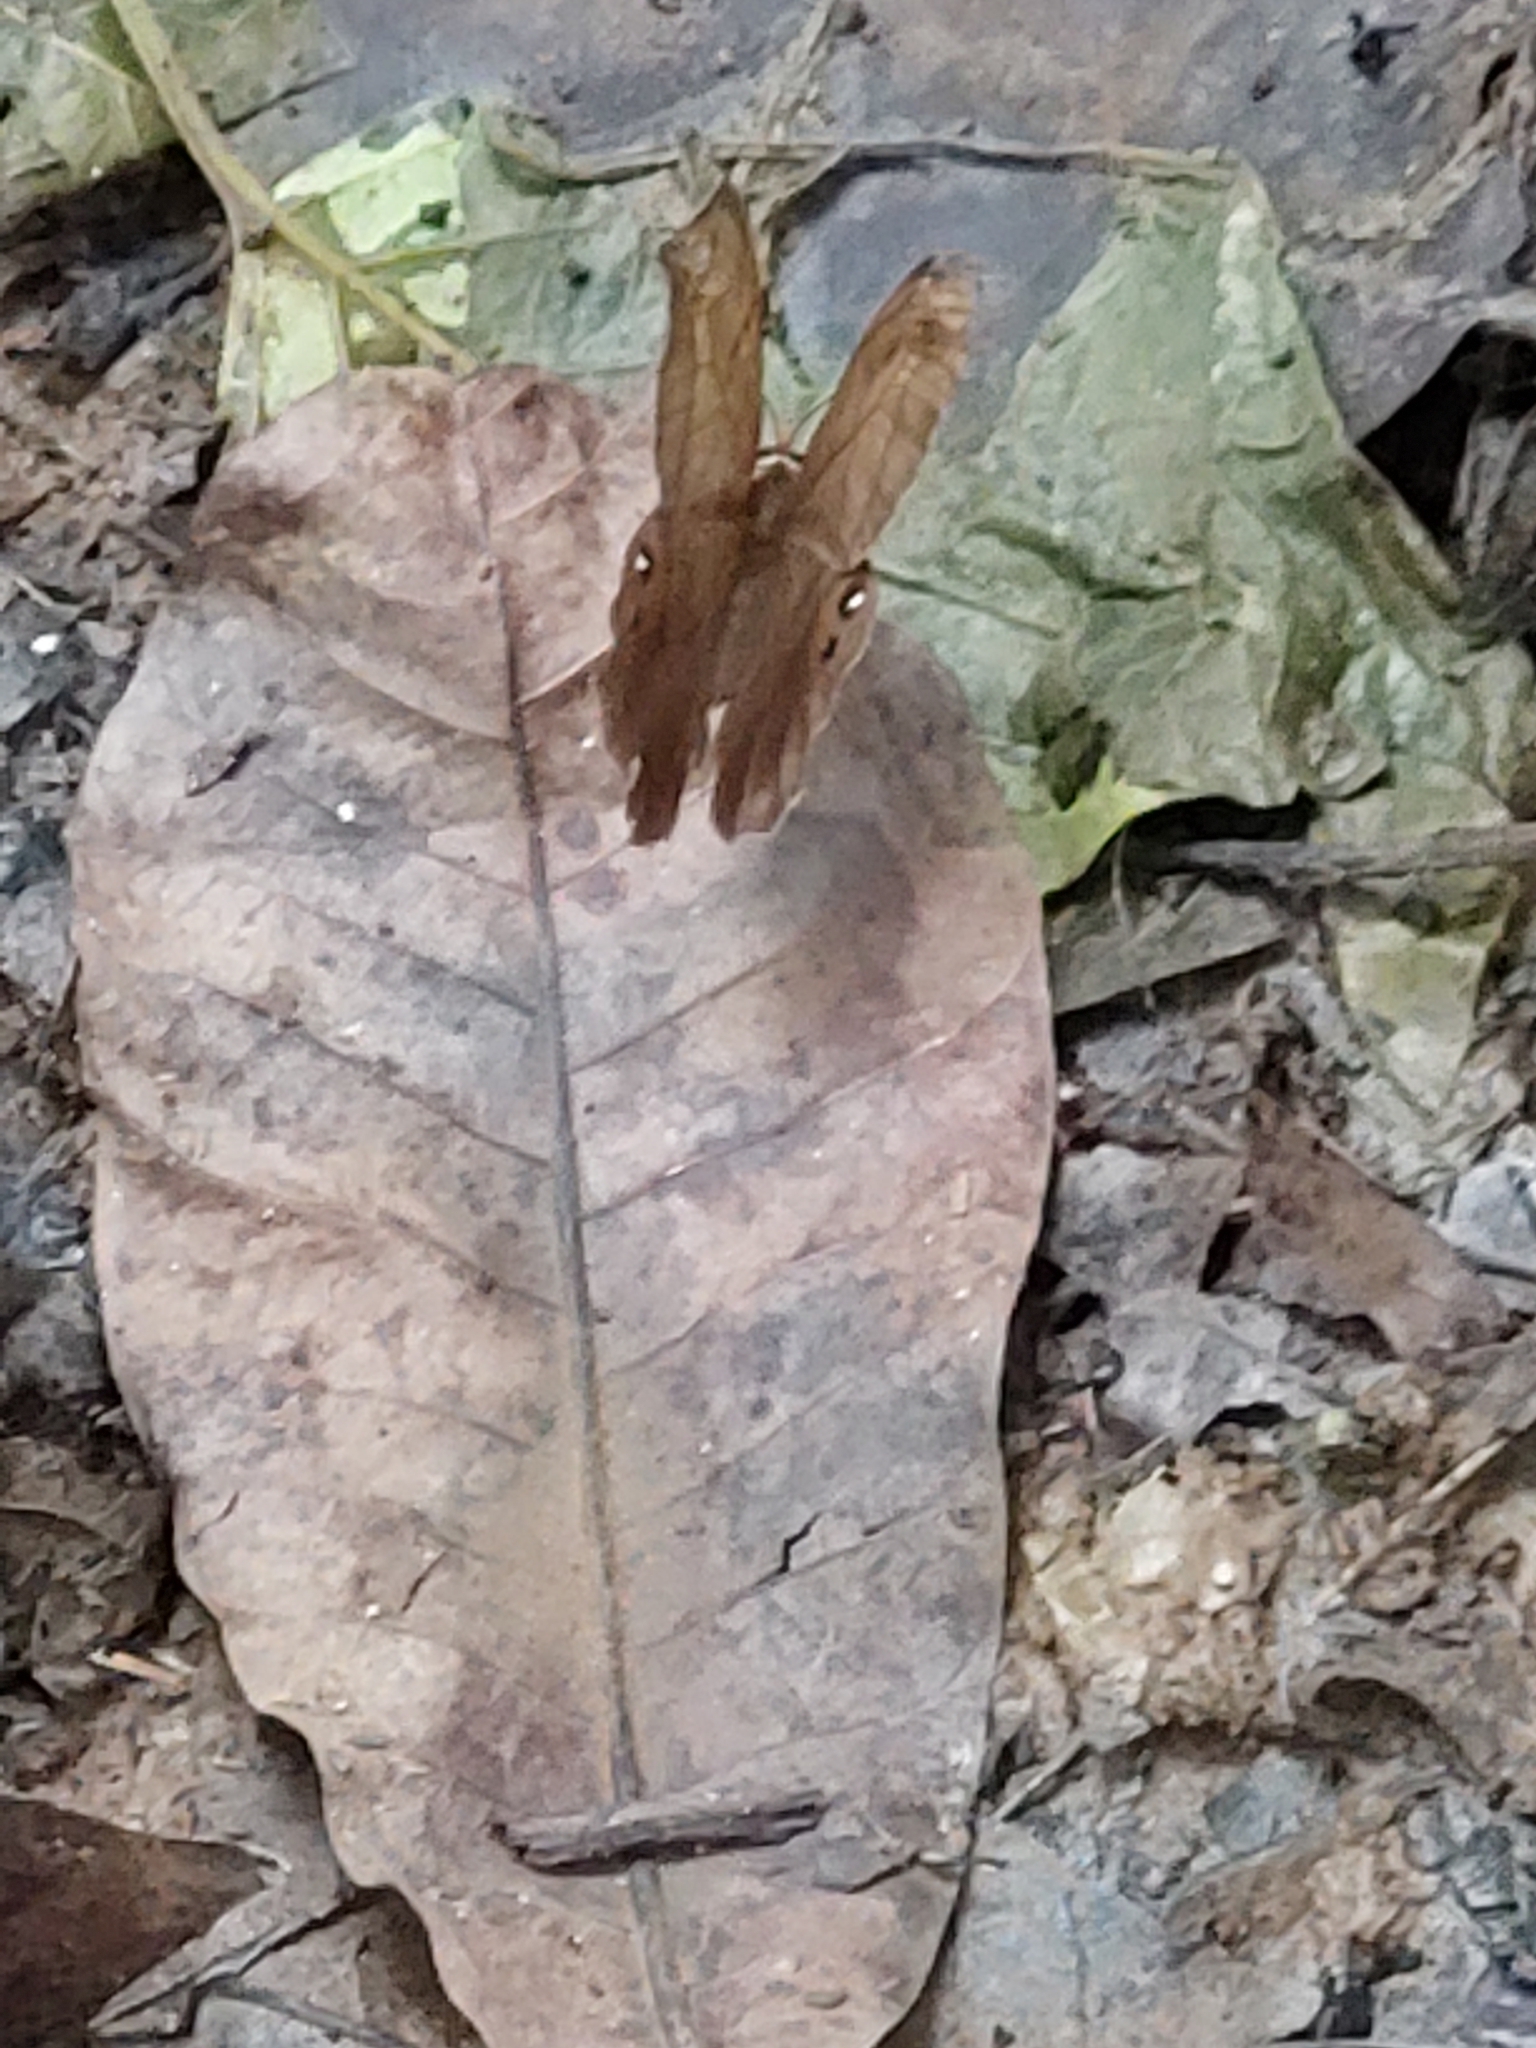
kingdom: Animalia
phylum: Arthropoda
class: Insecta
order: Lepidoptera
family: Nymphalidae
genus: Pierella
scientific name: Pierella luna
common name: Moon satyr
